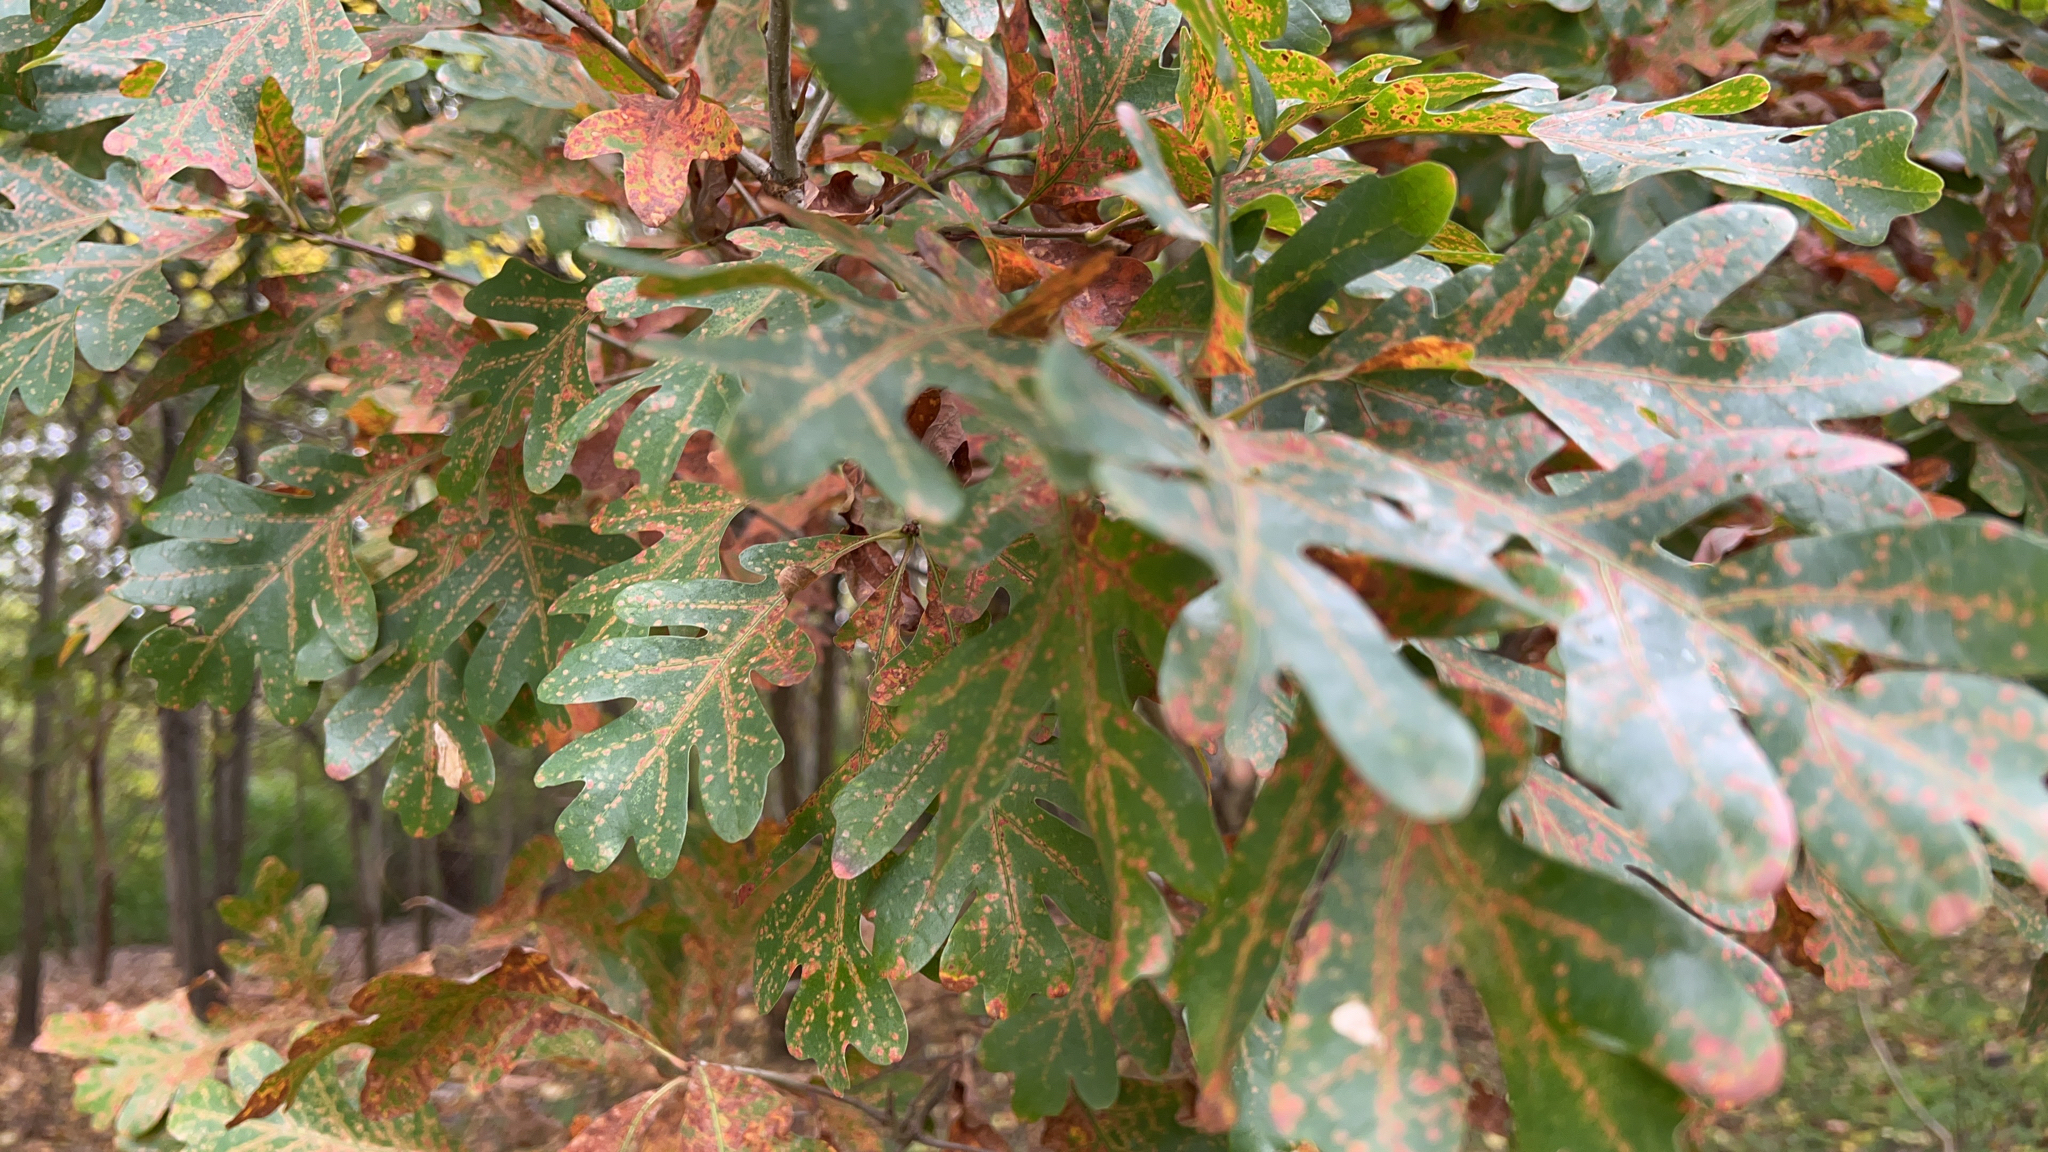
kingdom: Plantae
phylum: Tracheophyta
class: Magnoliopsida
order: Fagales
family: Fagaceae
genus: Quercus
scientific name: Quercus alba
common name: White oak
